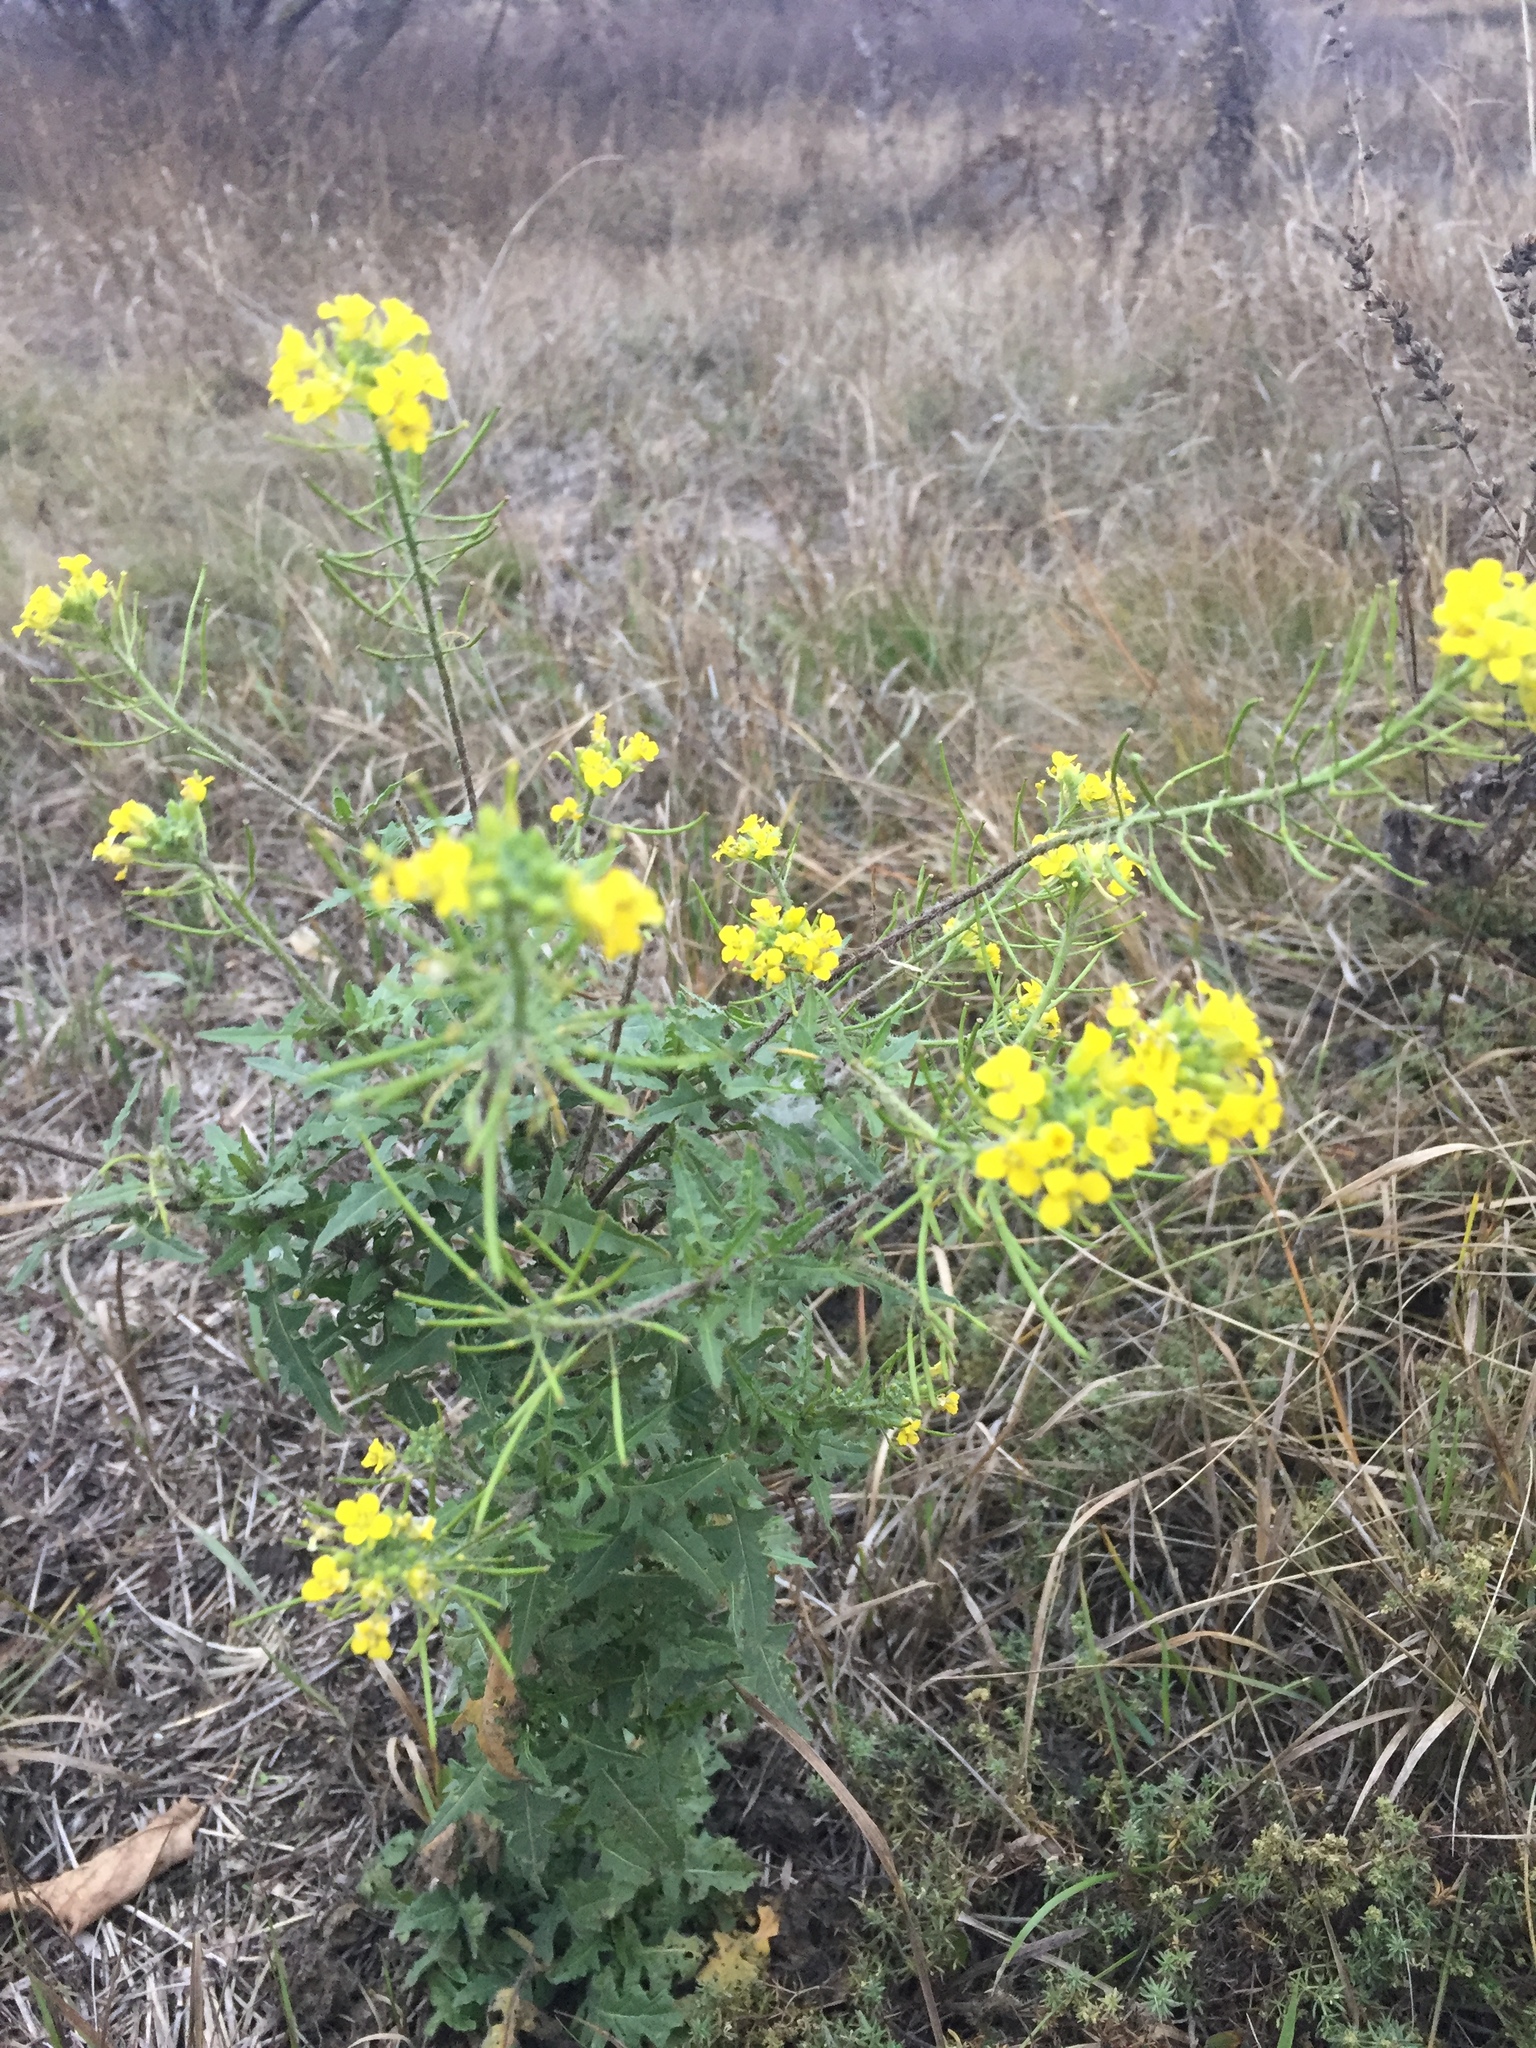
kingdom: Plantae
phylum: Tracheophyta
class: Magnoliopsida
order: Brassicales
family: Brassicaceae
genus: Sisymbrium
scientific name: Sisymbrium loeselii
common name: False london-rocket
